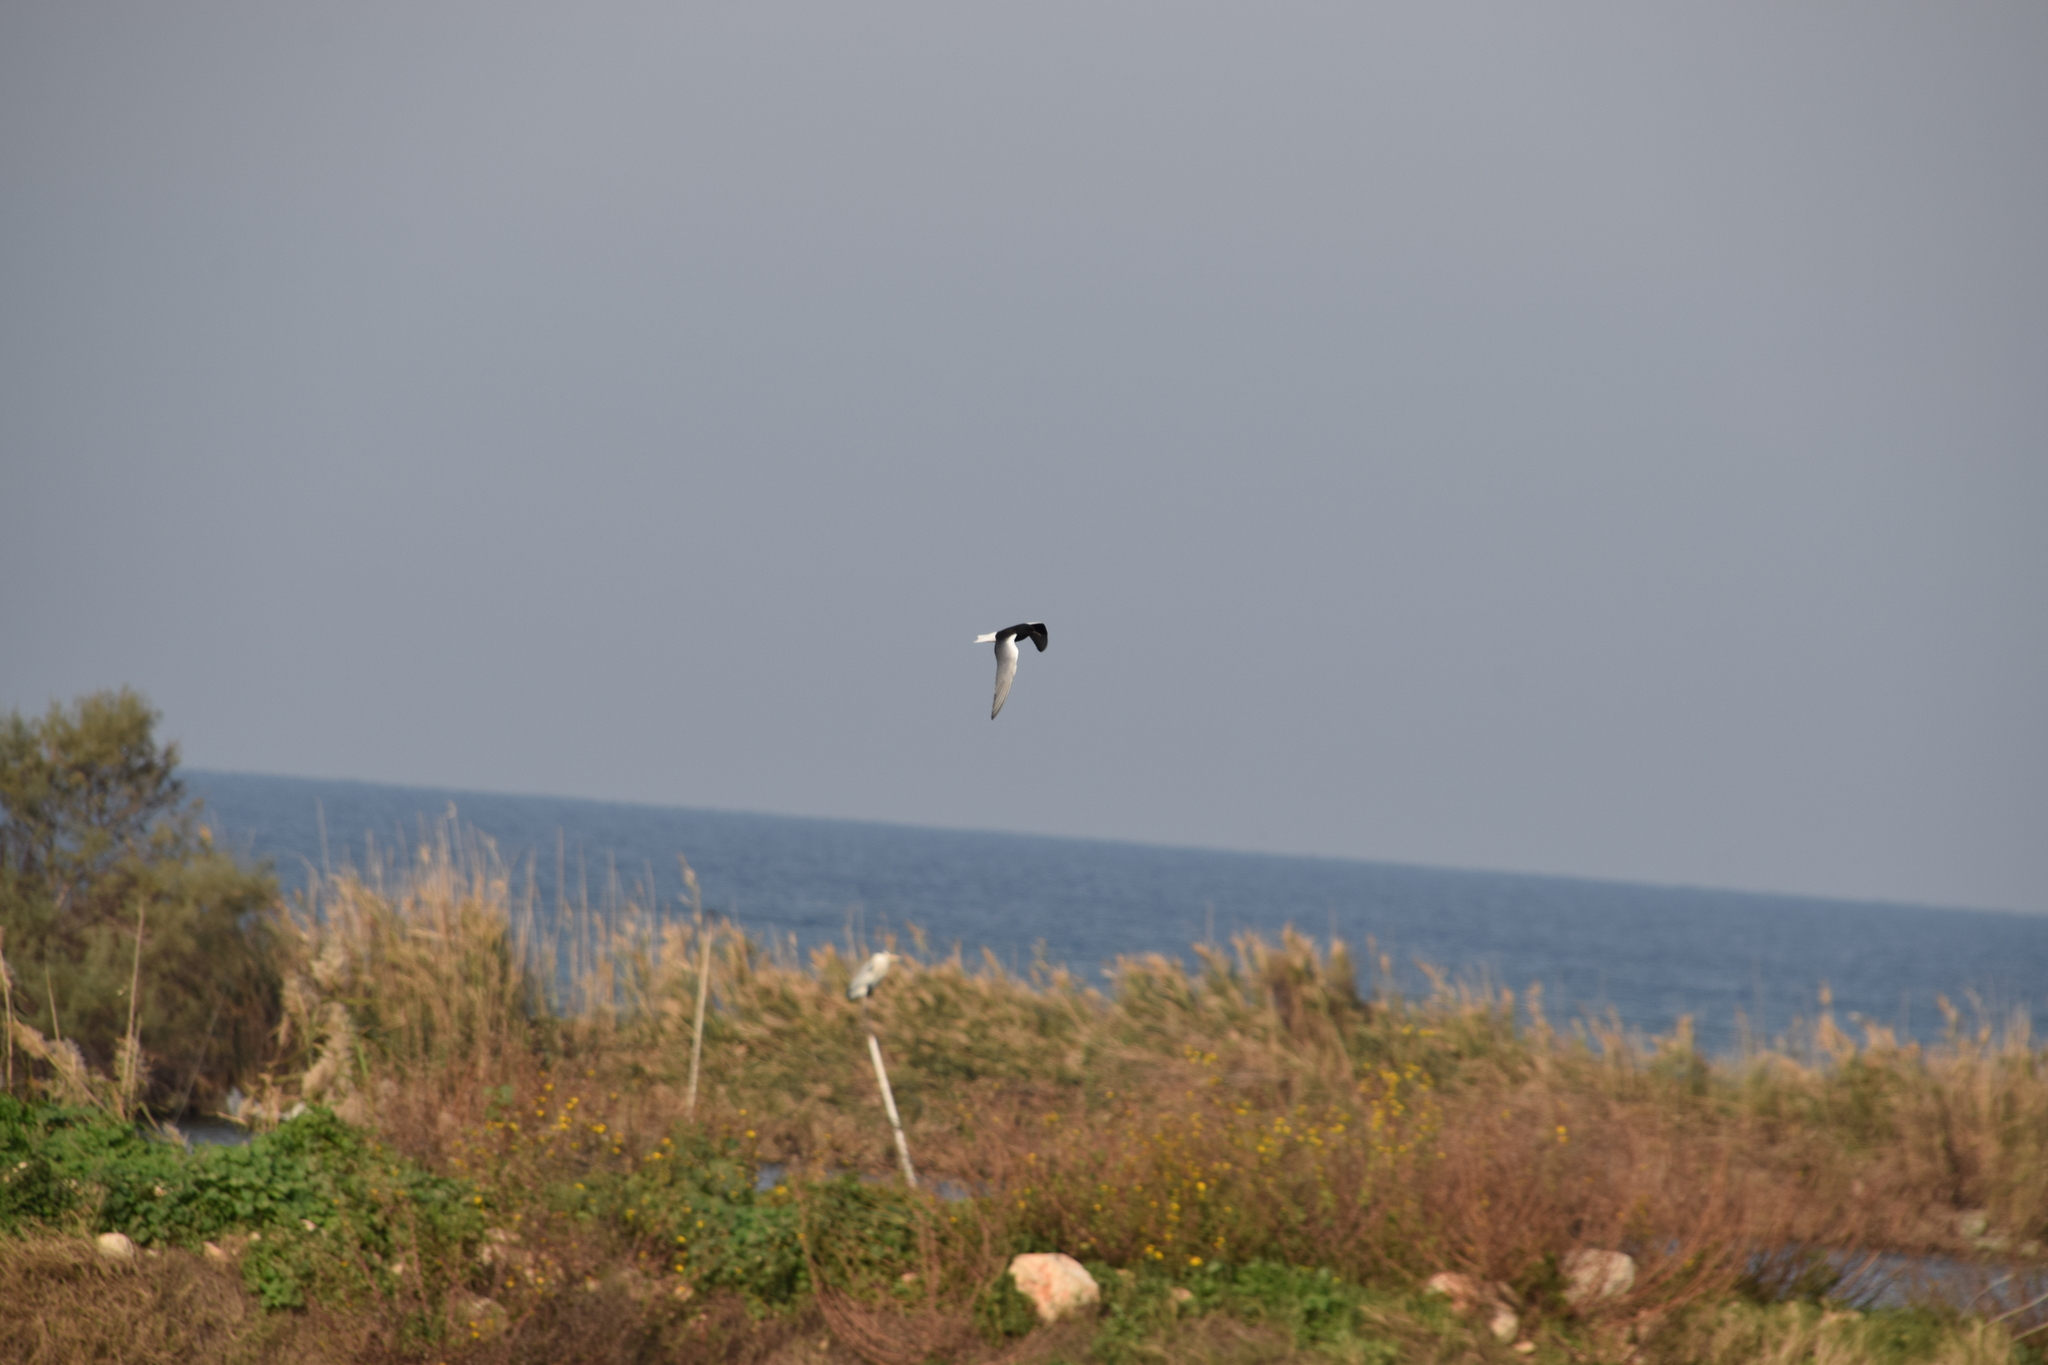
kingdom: Animalia
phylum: Chordata
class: Aves
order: Charadriiformes
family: Laridae
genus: Chlidonias
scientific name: Chlidonias leucopterus
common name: White-winged tern
